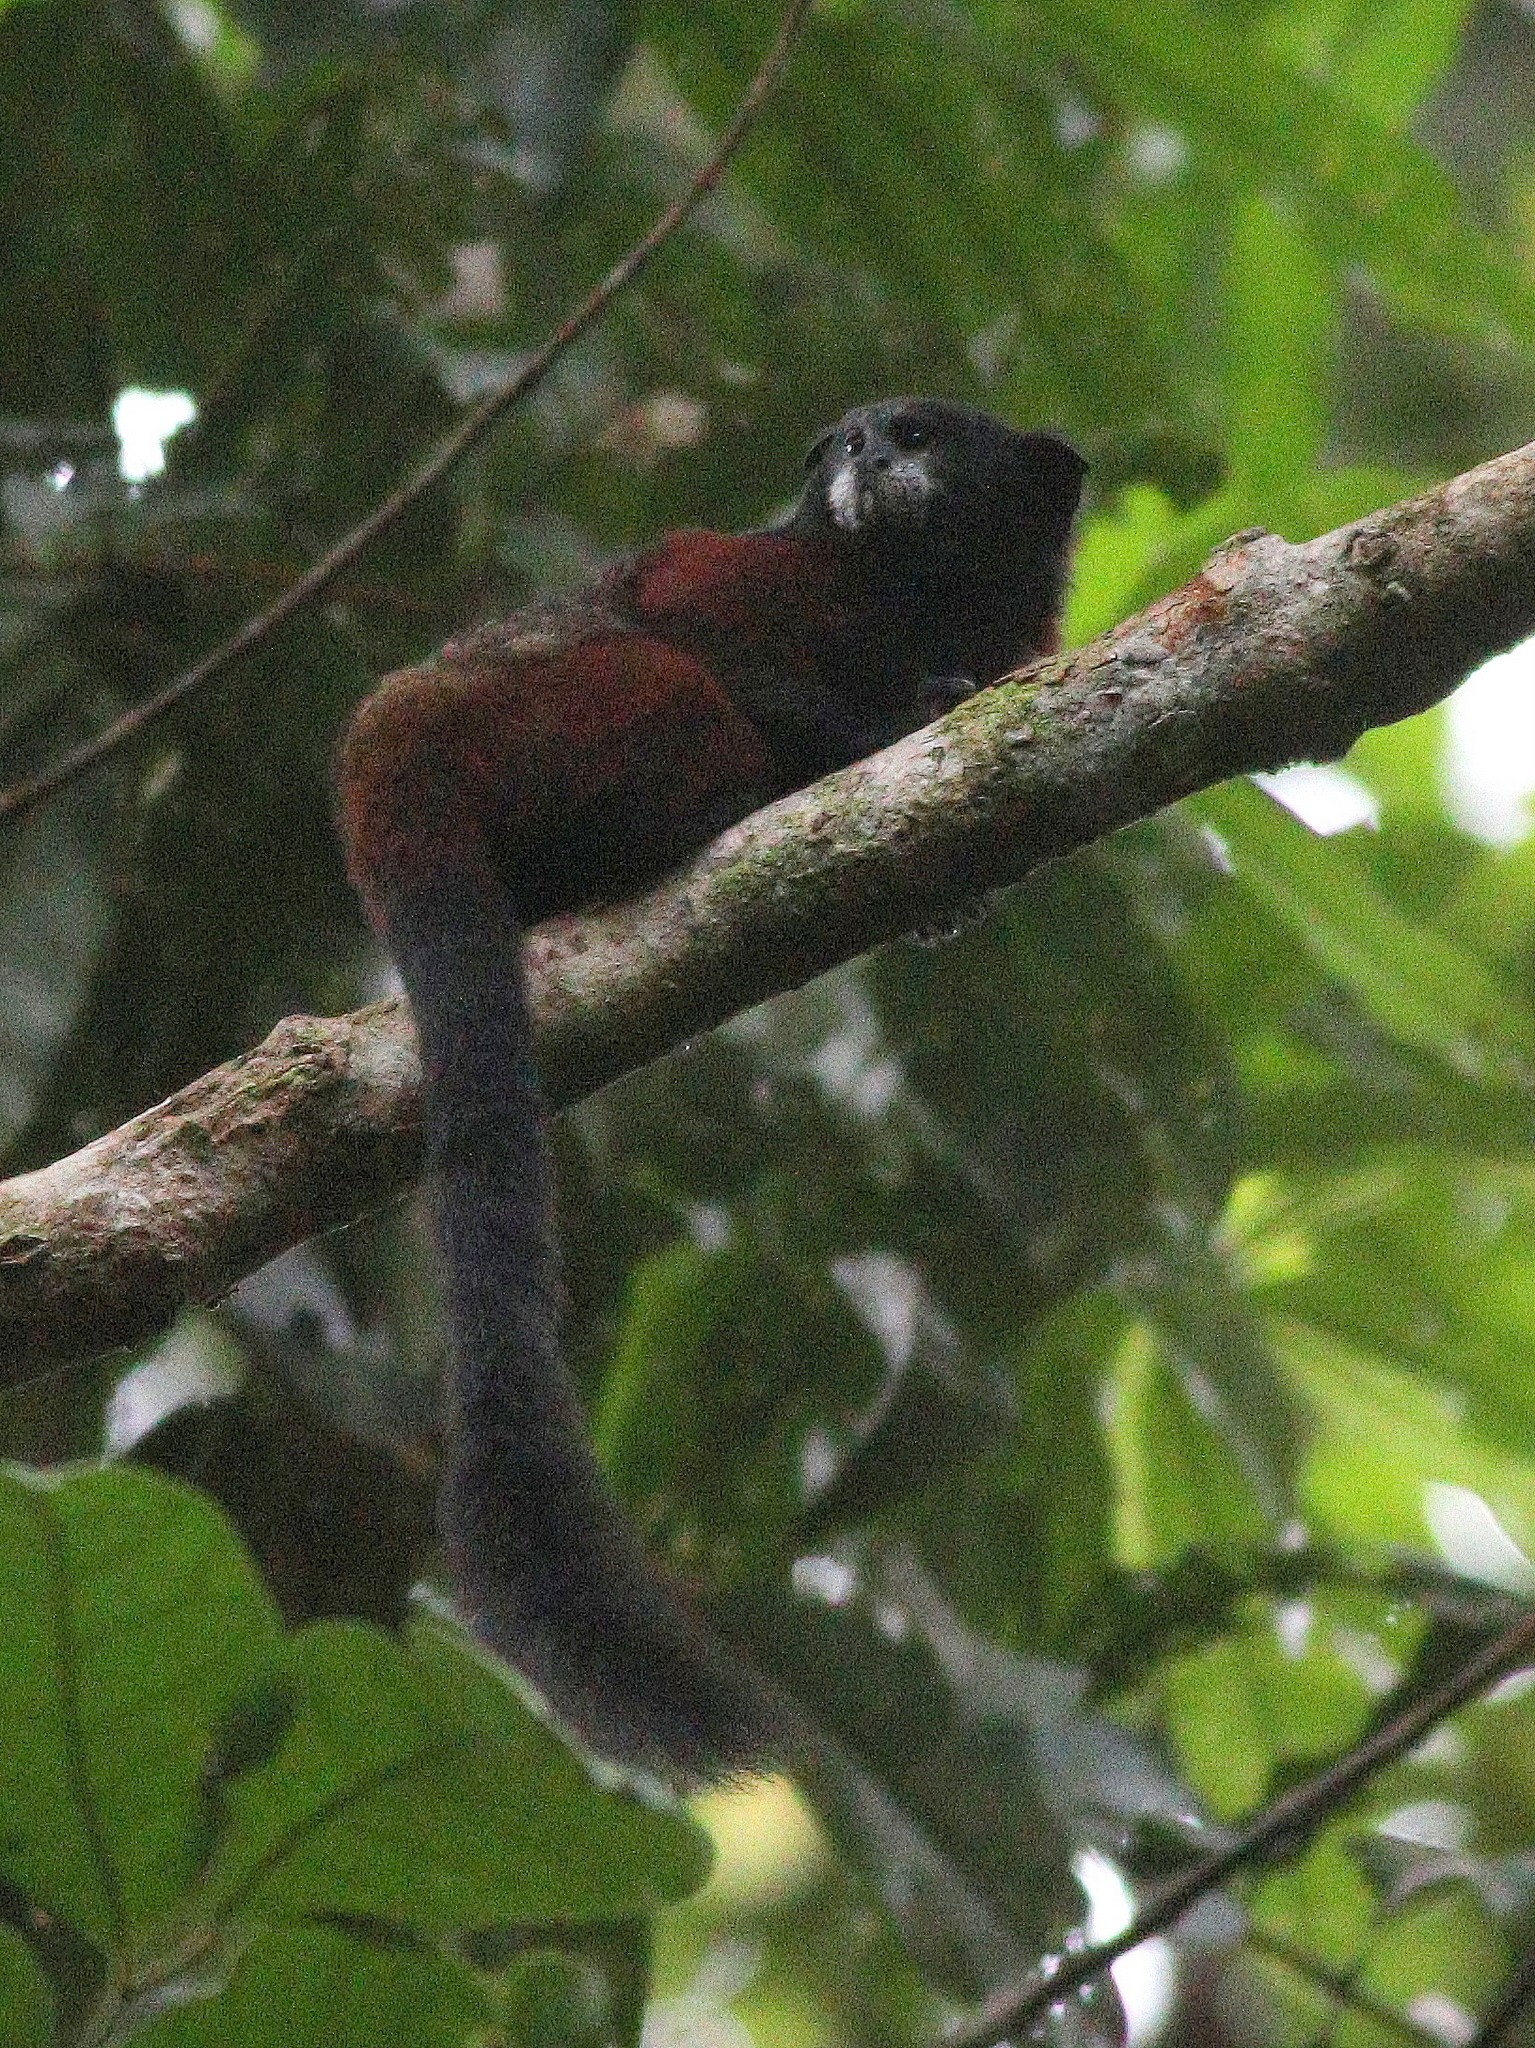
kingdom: Animalia
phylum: Chordata
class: Mammalia
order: Primates
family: Callitrichidae
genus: Leontocebus
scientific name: Leontocebus lagonotus
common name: Red-mantled saddle-back tamarin
